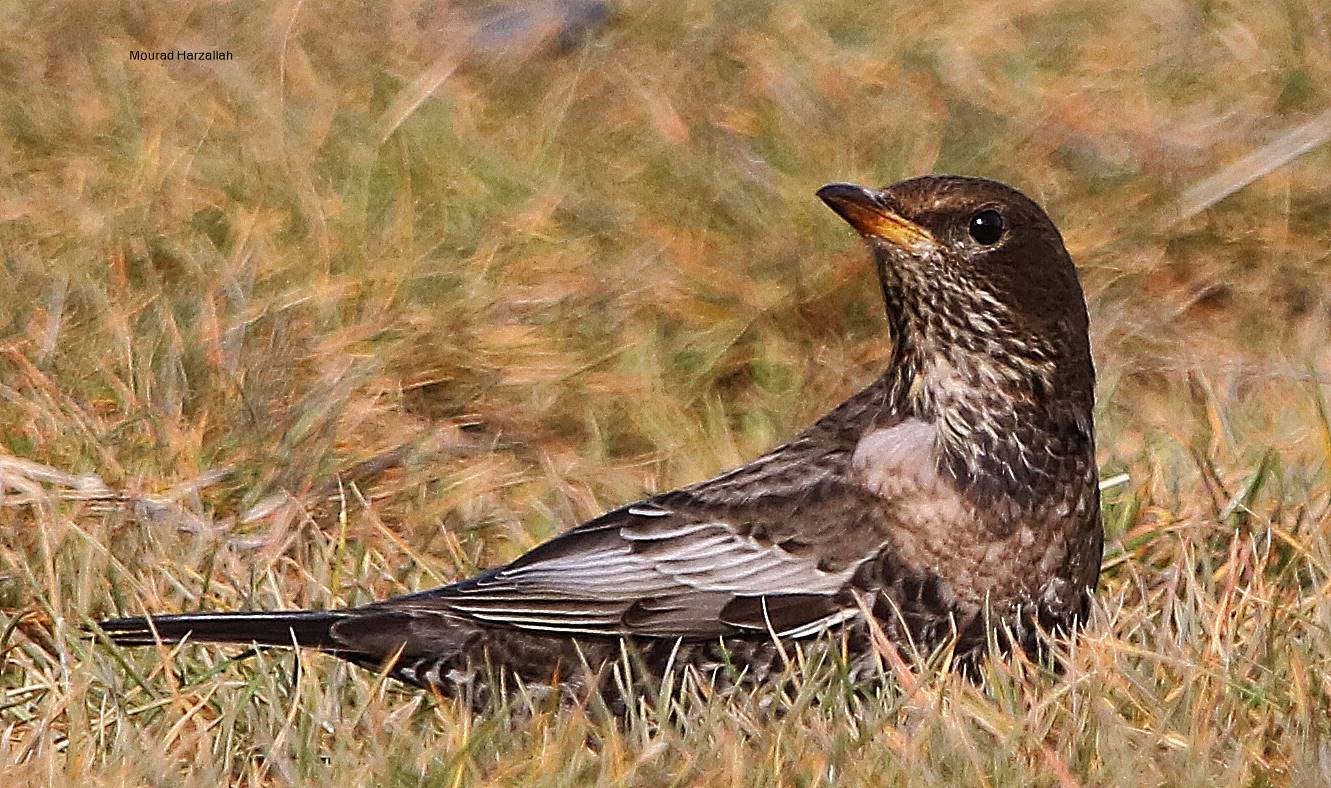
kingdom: Animalia
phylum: Chordata
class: Aves
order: Passeriformes
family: Turdidae
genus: Turdus
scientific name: Turdus torquatus
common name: Ring ouzel
